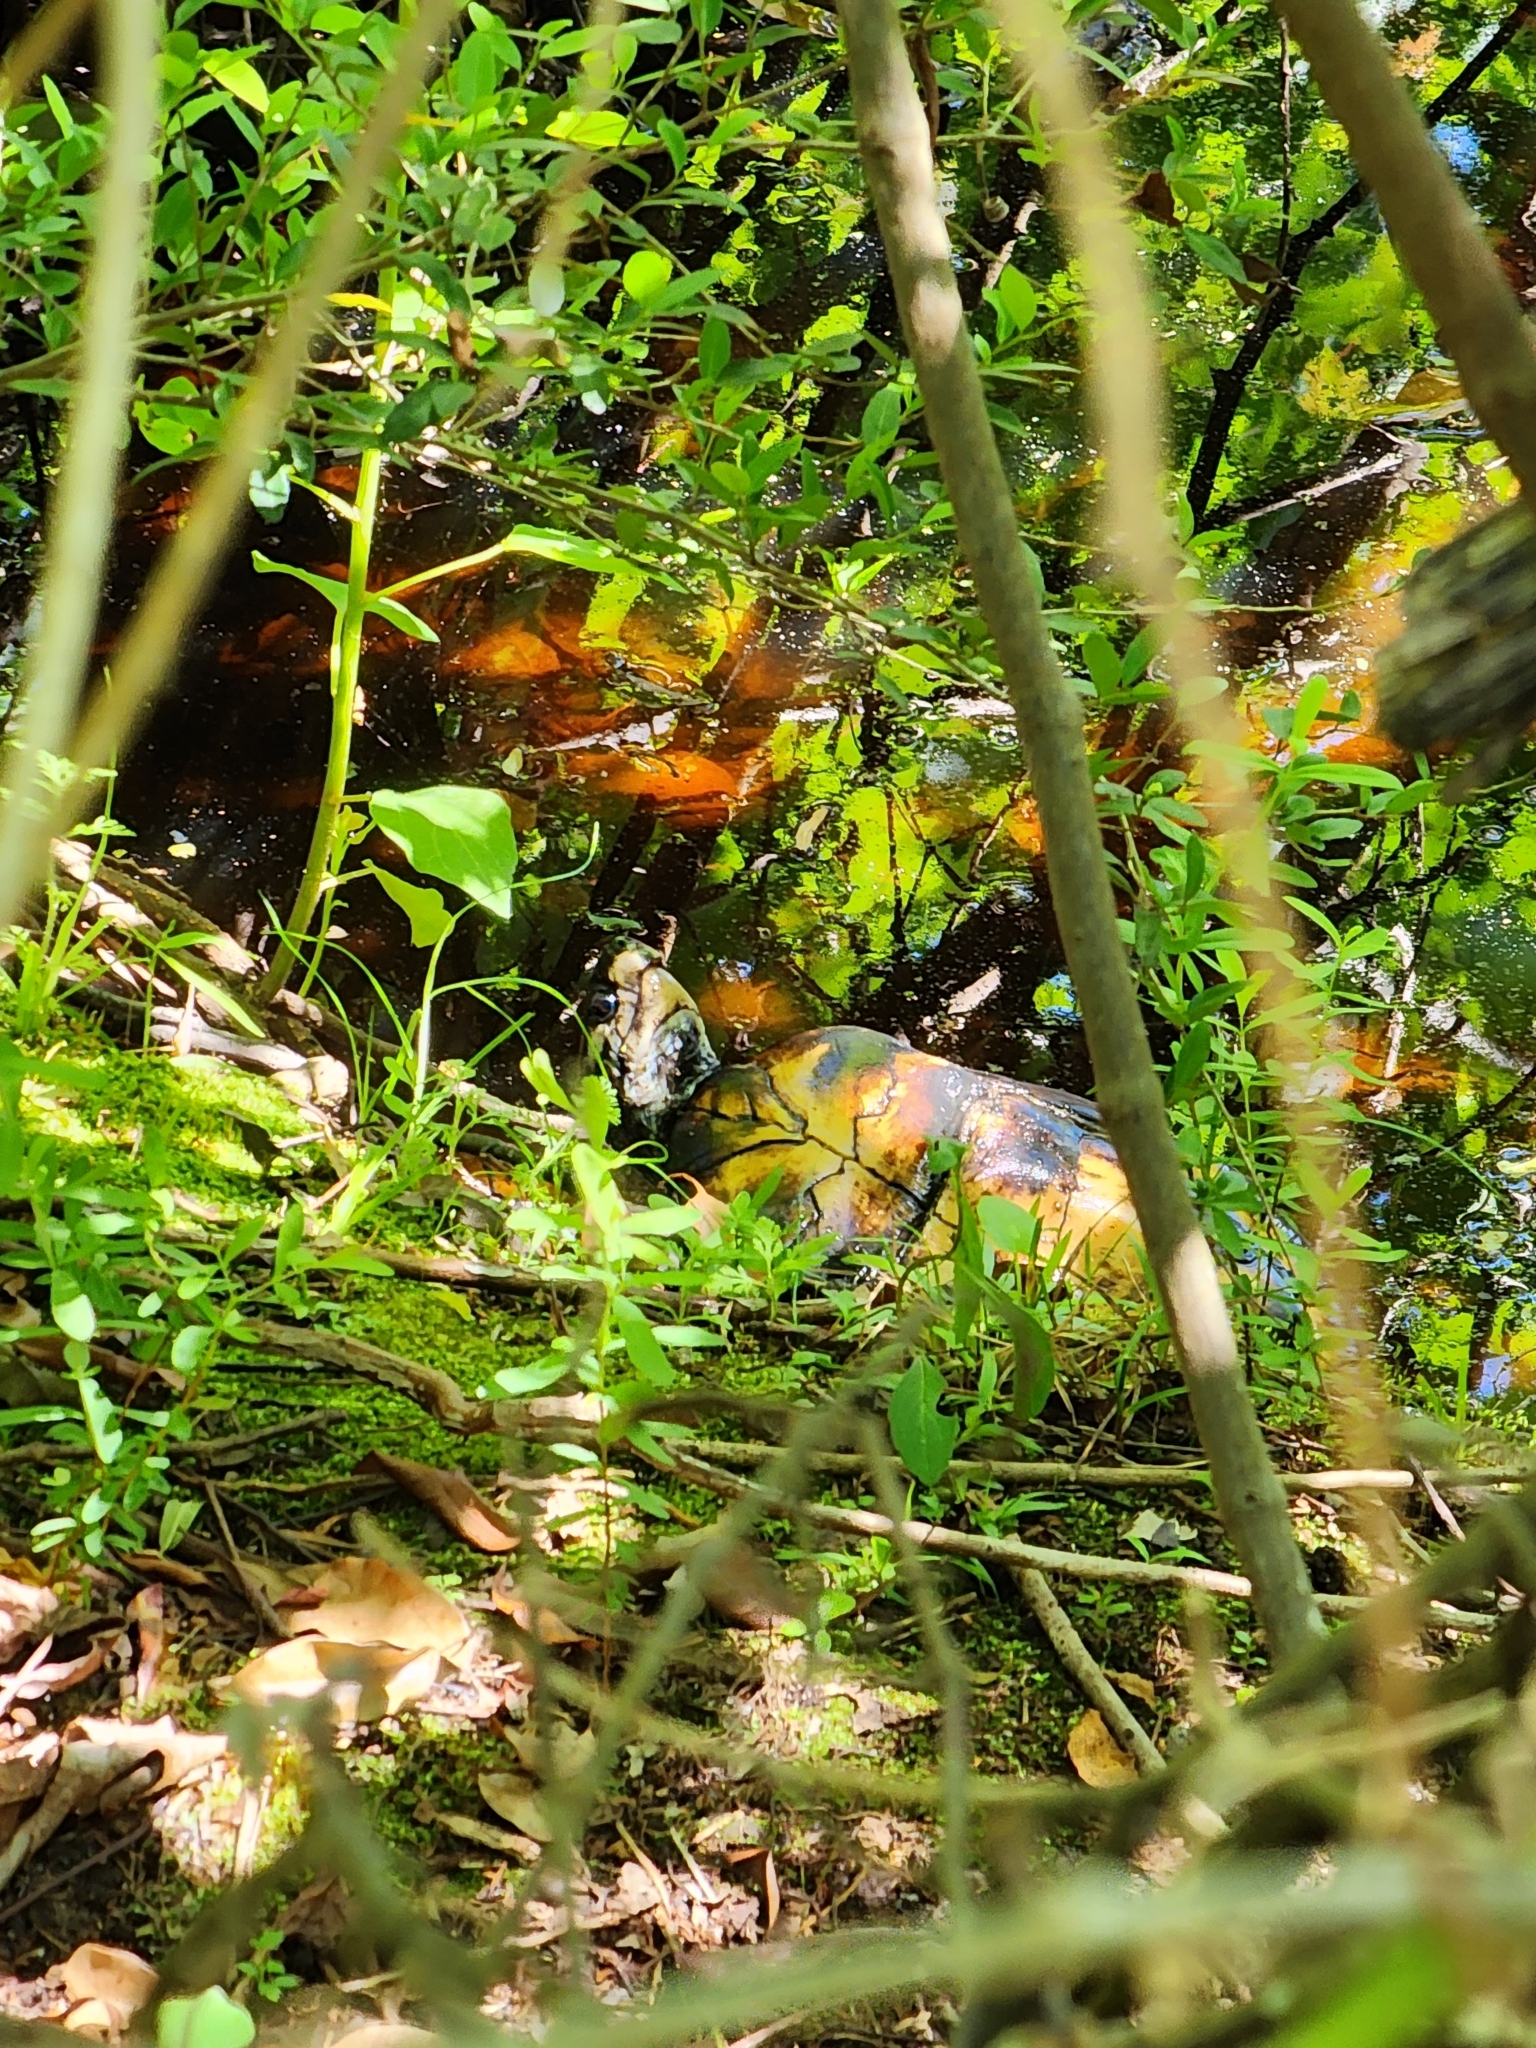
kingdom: Animalia
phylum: Chordata
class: Testudines
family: Emydidae
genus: Terrapene
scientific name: Terrapene carolina
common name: Common box turtle
